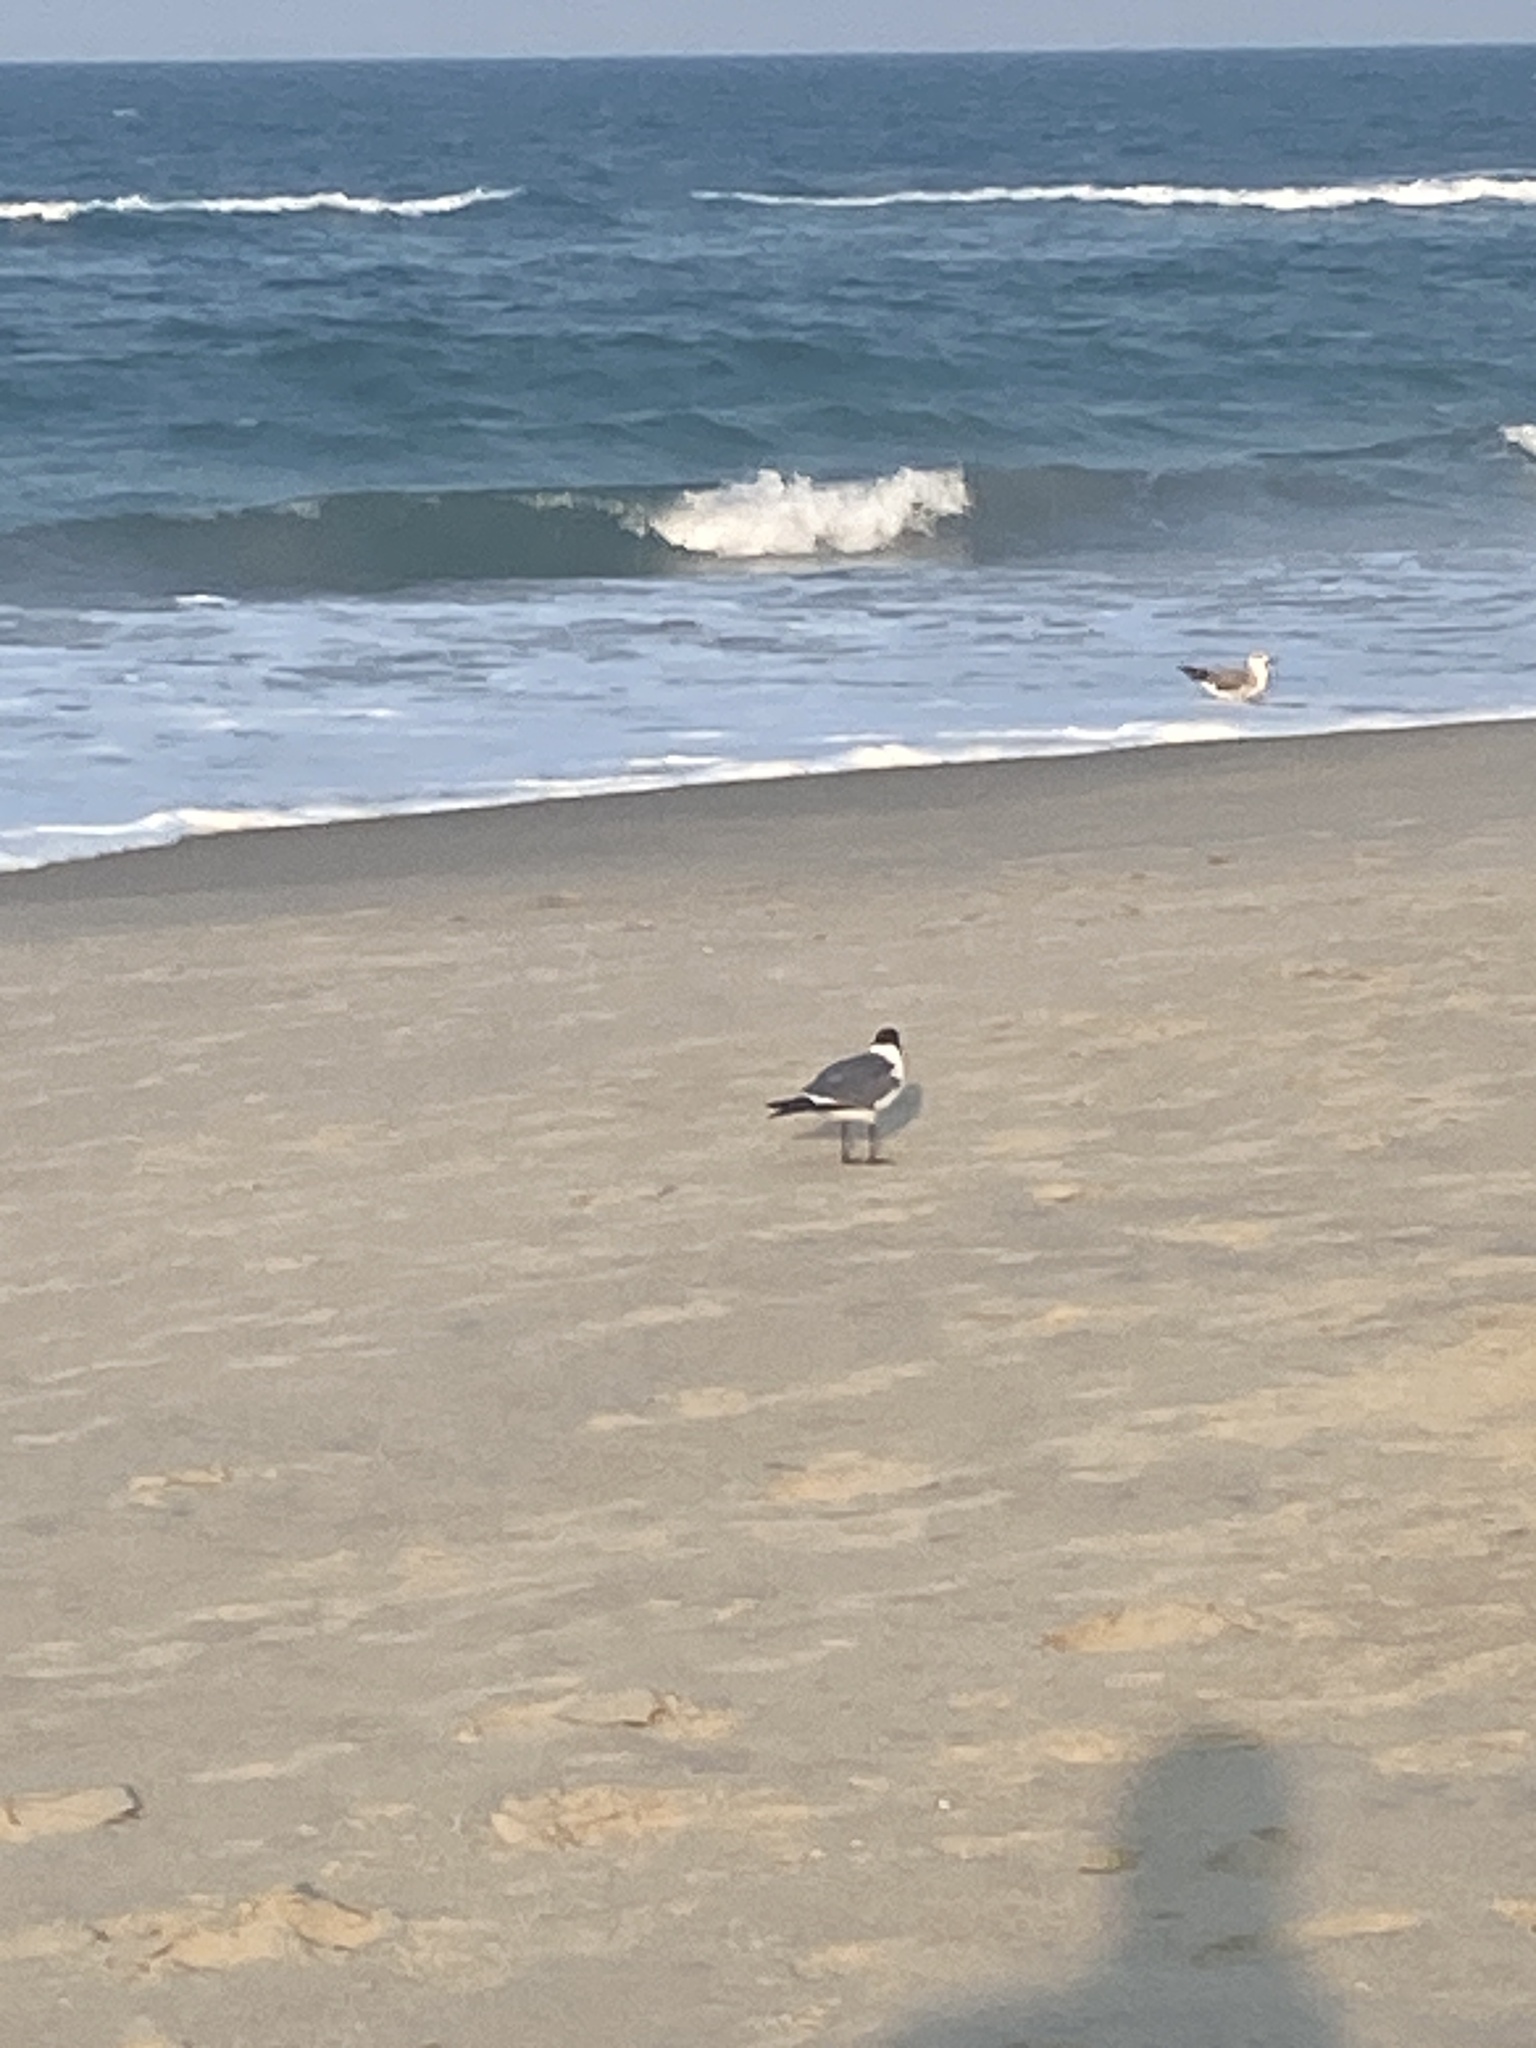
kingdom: Animalia
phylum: Chordata
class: Aves
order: Charadriiformes
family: Laridae
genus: Leucophaeus
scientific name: Leucophaeus atricilla
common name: Laughing gull
